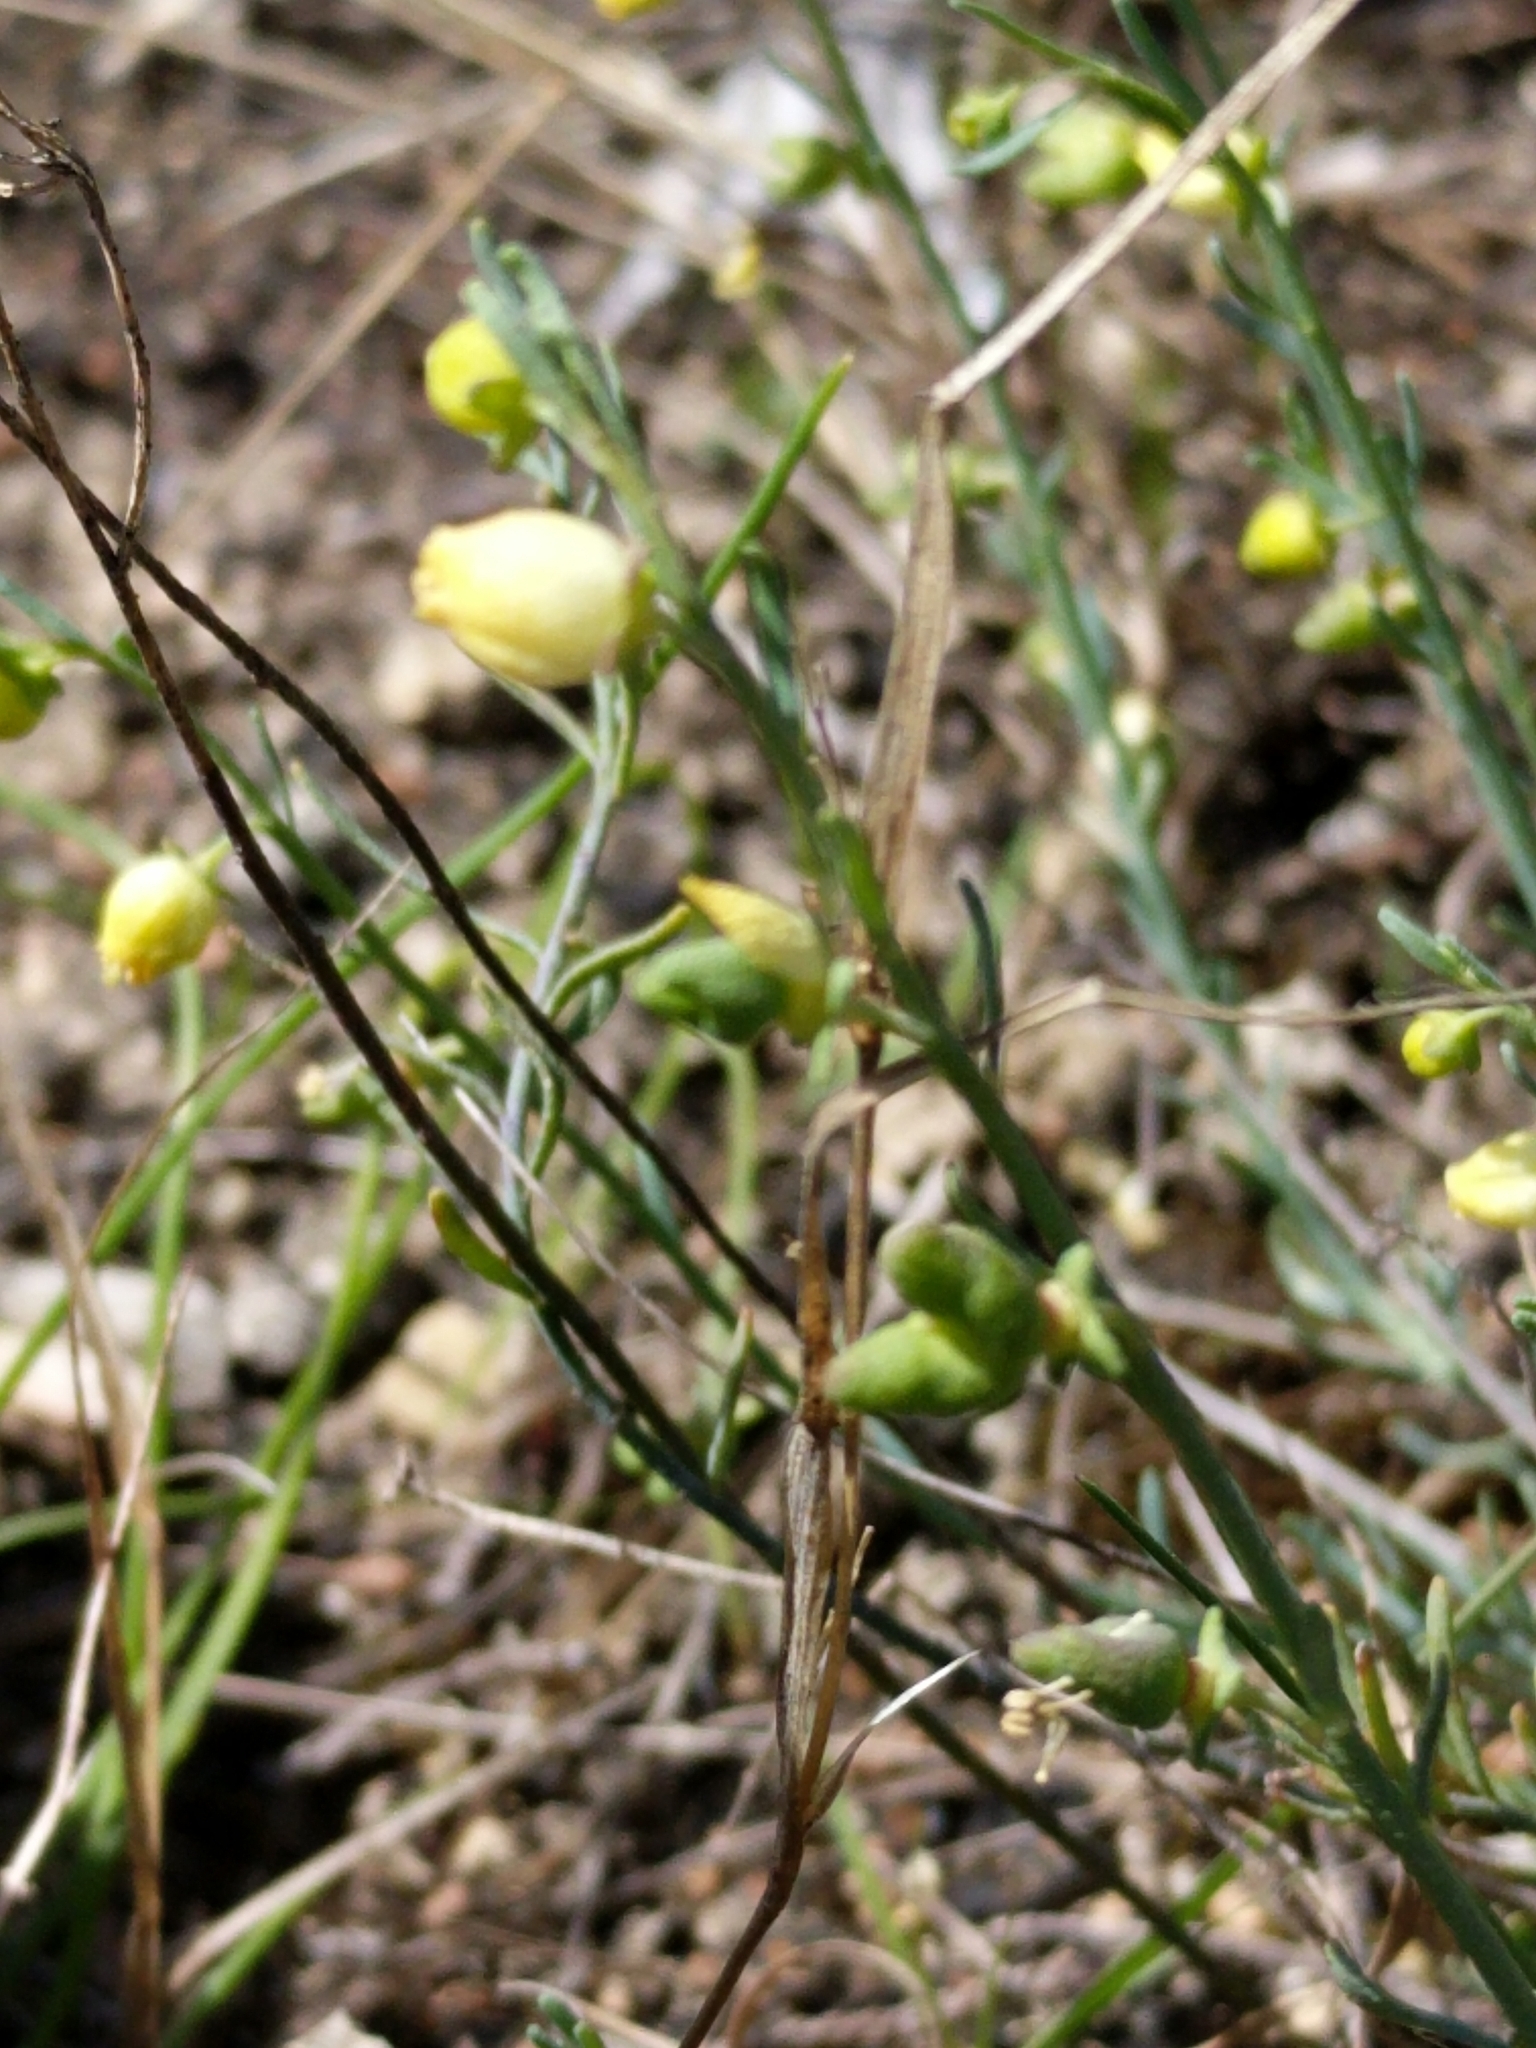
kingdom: Plantae
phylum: Tracheophyta
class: Magnoliopsida
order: Sapindales
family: Rutaceae
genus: Thamnosma
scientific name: Thamnosma texana
